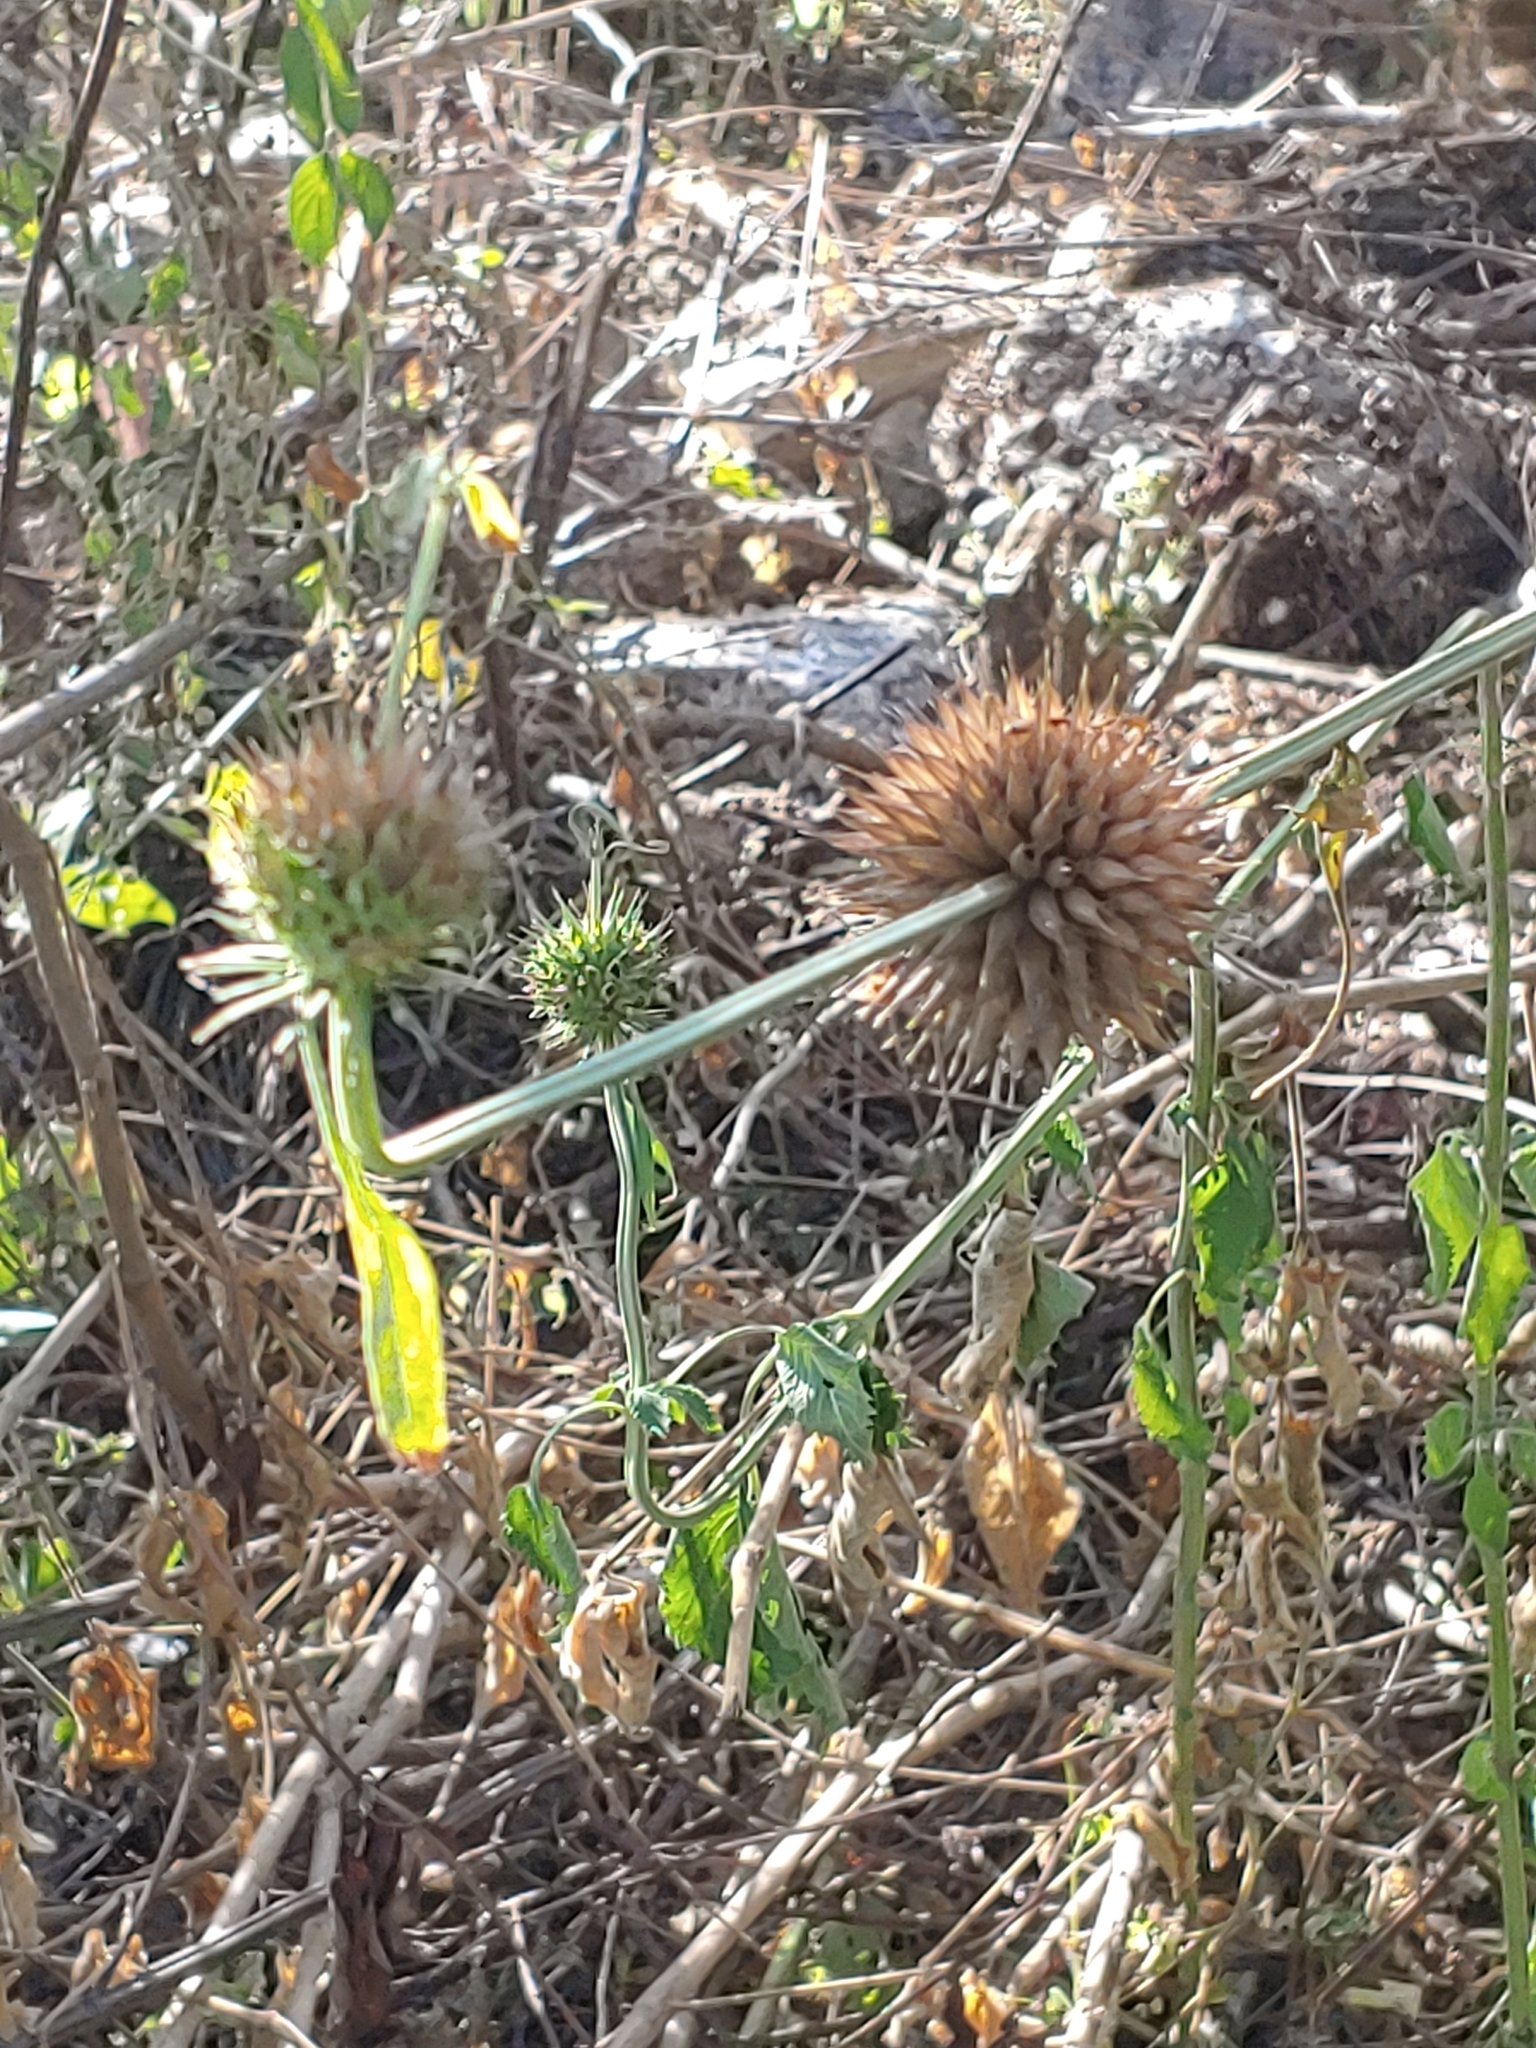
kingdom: Plantae
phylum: Tracheophyta
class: Magnoliopsida
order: Lamiales
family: Lamiaceae
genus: Leonotis
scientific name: Leonotis nepetifolia
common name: Christmas candlestick
